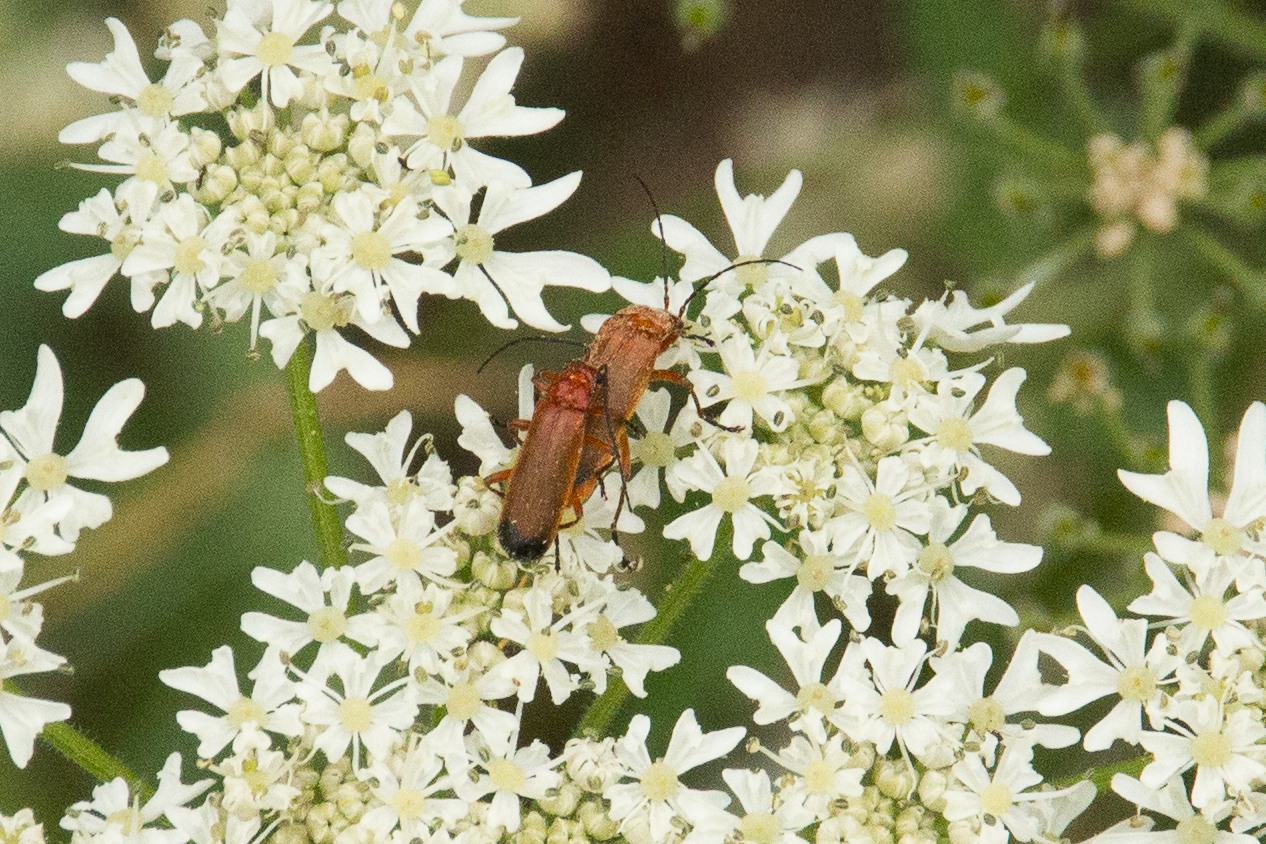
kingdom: Animalia
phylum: Arthropoda
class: Insecta
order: Coleoptera
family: Cantharidae
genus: Rhagonycha
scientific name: Rhagonycha fulva
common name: Common red soldier beetle
